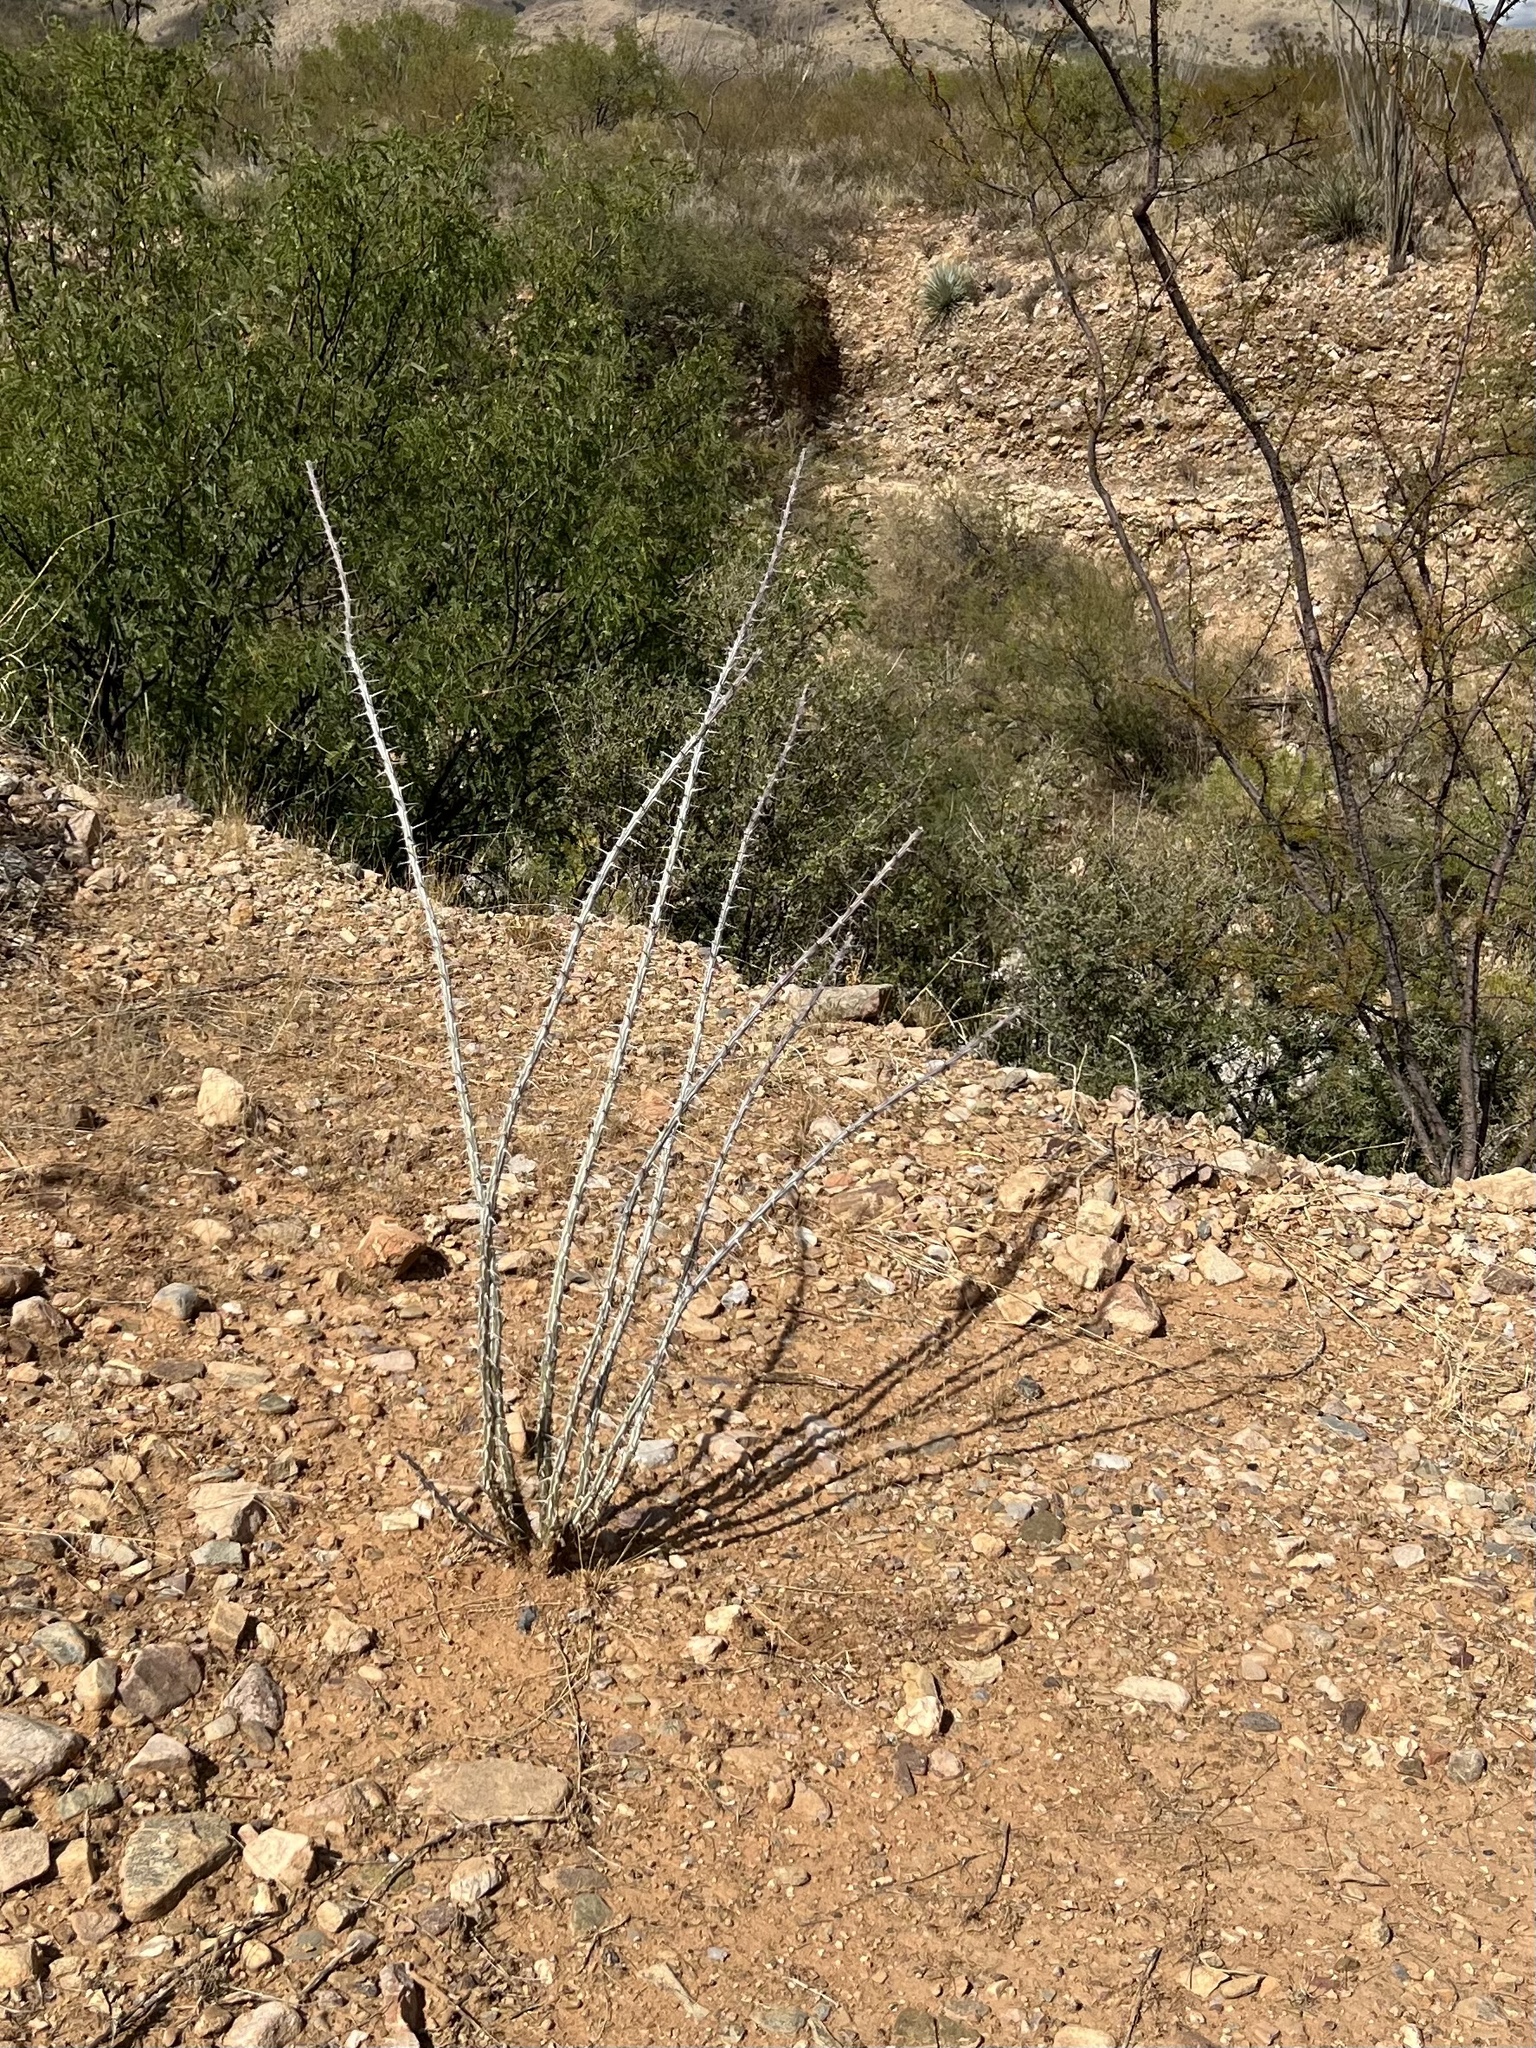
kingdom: Plantae
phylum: Tracheophyta
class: Magnoliopsida
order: Ericales
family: Fouquieriaceae
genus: Fouquieria
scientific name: Fouquieria splendens
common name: Vine-cactus
